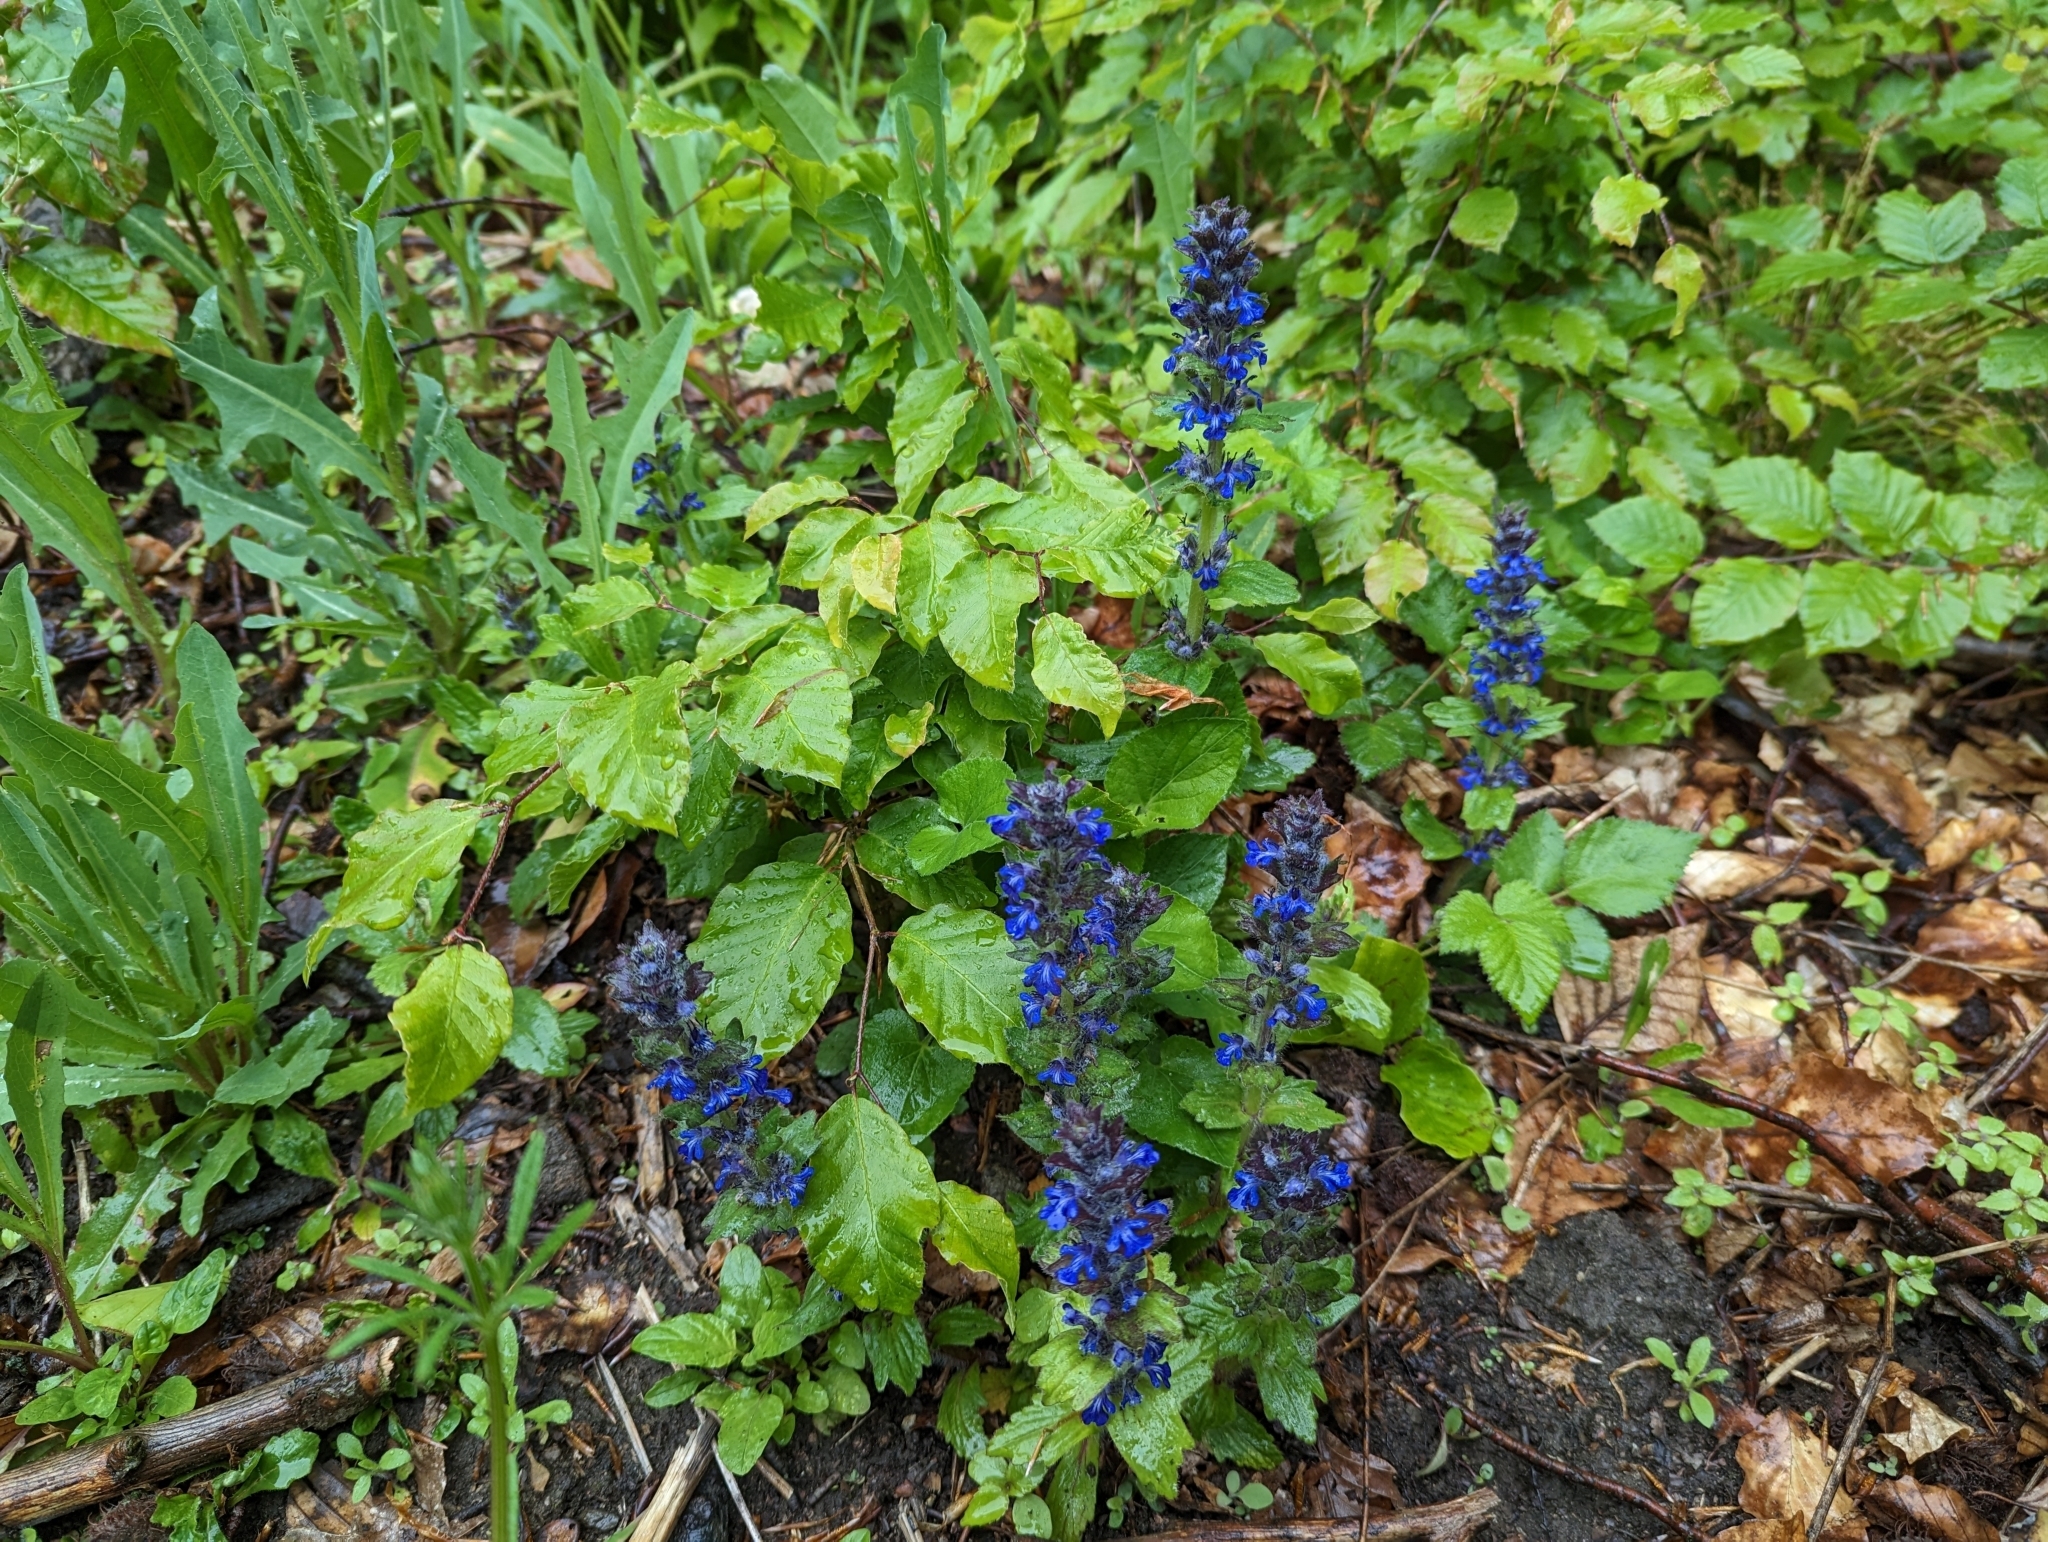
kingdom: Plantae
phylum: Tracheophyta
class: Magnoliopsida
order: Lamiales
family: Lamiaceae
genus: Ajuga
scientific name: Ajuga genevensis
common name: Blue bugle
